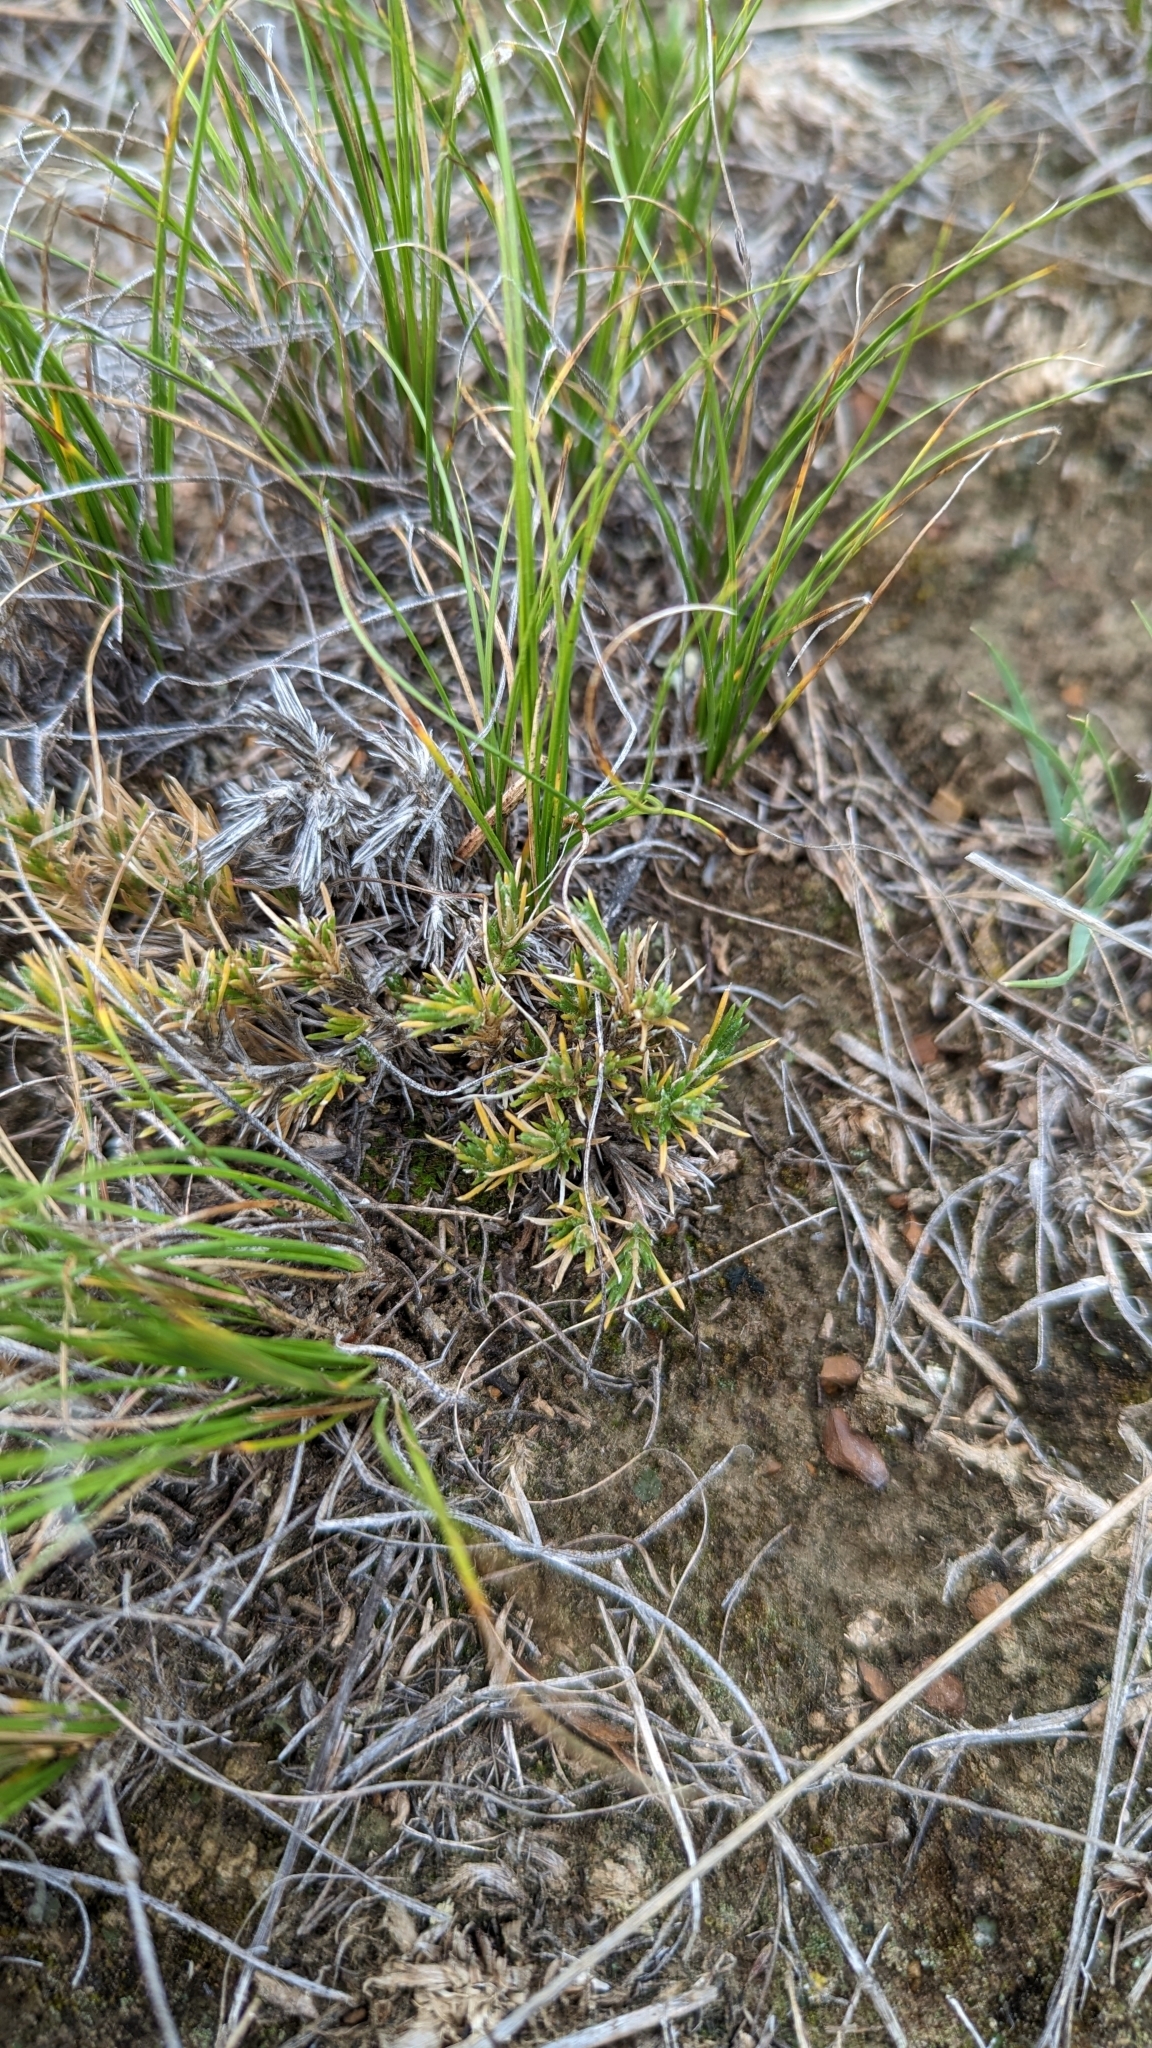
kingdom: Plantae
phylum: Tracheophyta
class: Magnoliopsida
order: Ericales
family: Polemoniaceae
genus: Phlox
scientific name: Phlox hoodii
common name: Moss phlox
